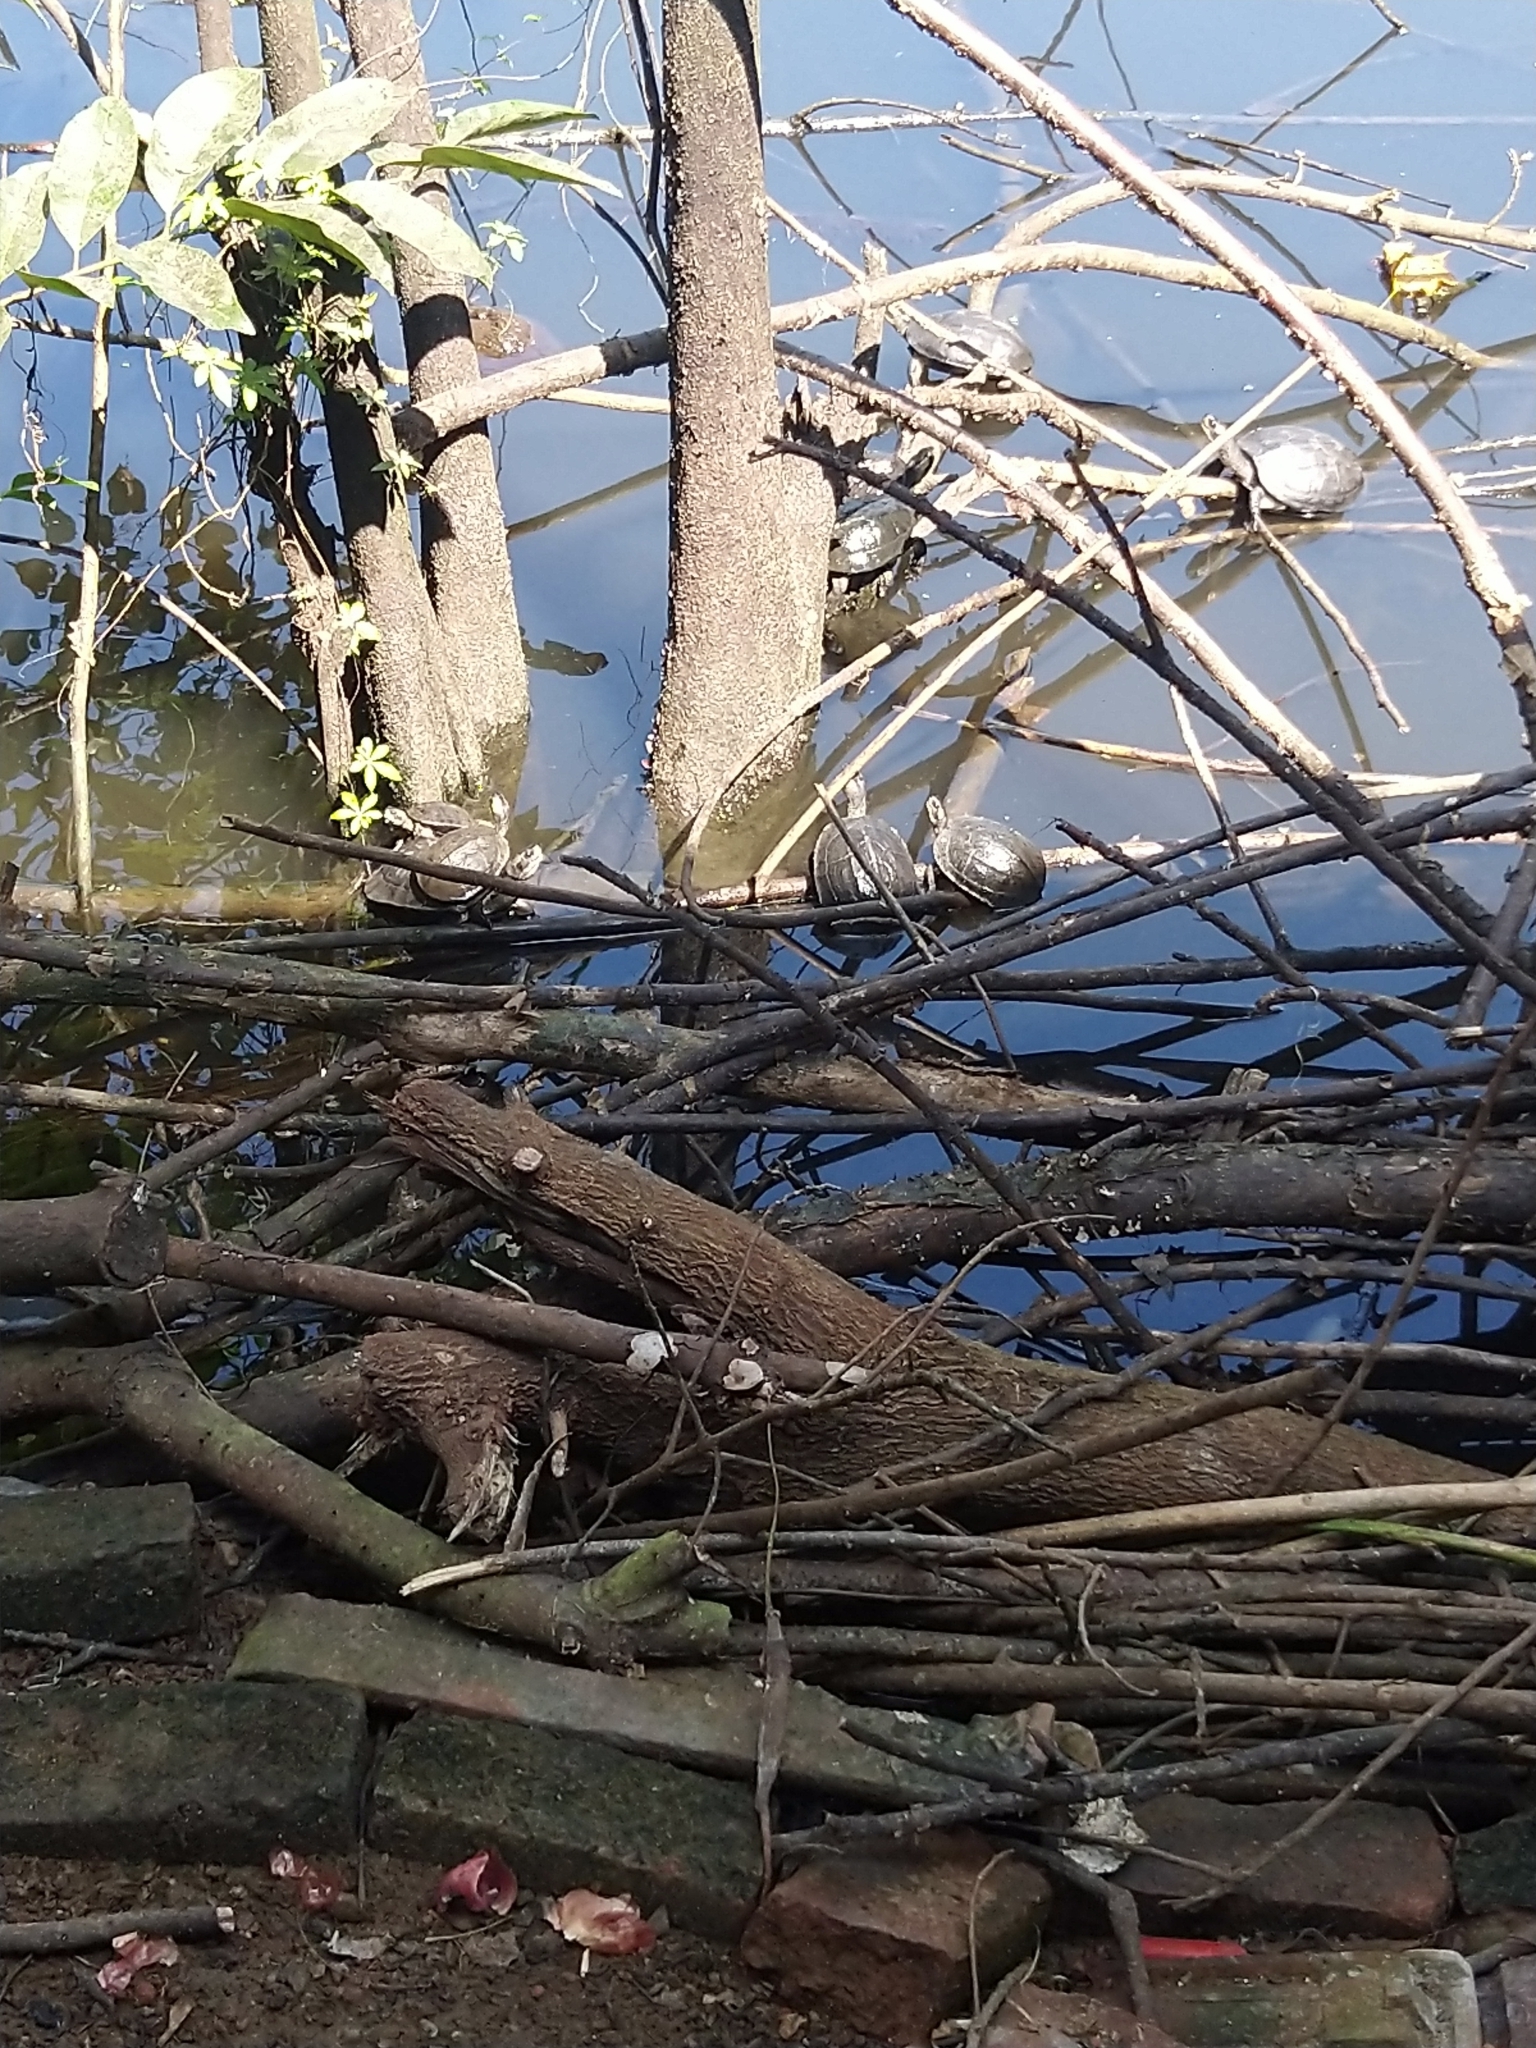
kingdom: Animalia
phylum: Chordata
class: Testudines
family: Geoemydidae
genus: Melanochelys
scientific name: Melanochelys trijuga
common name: Indian black turtle
